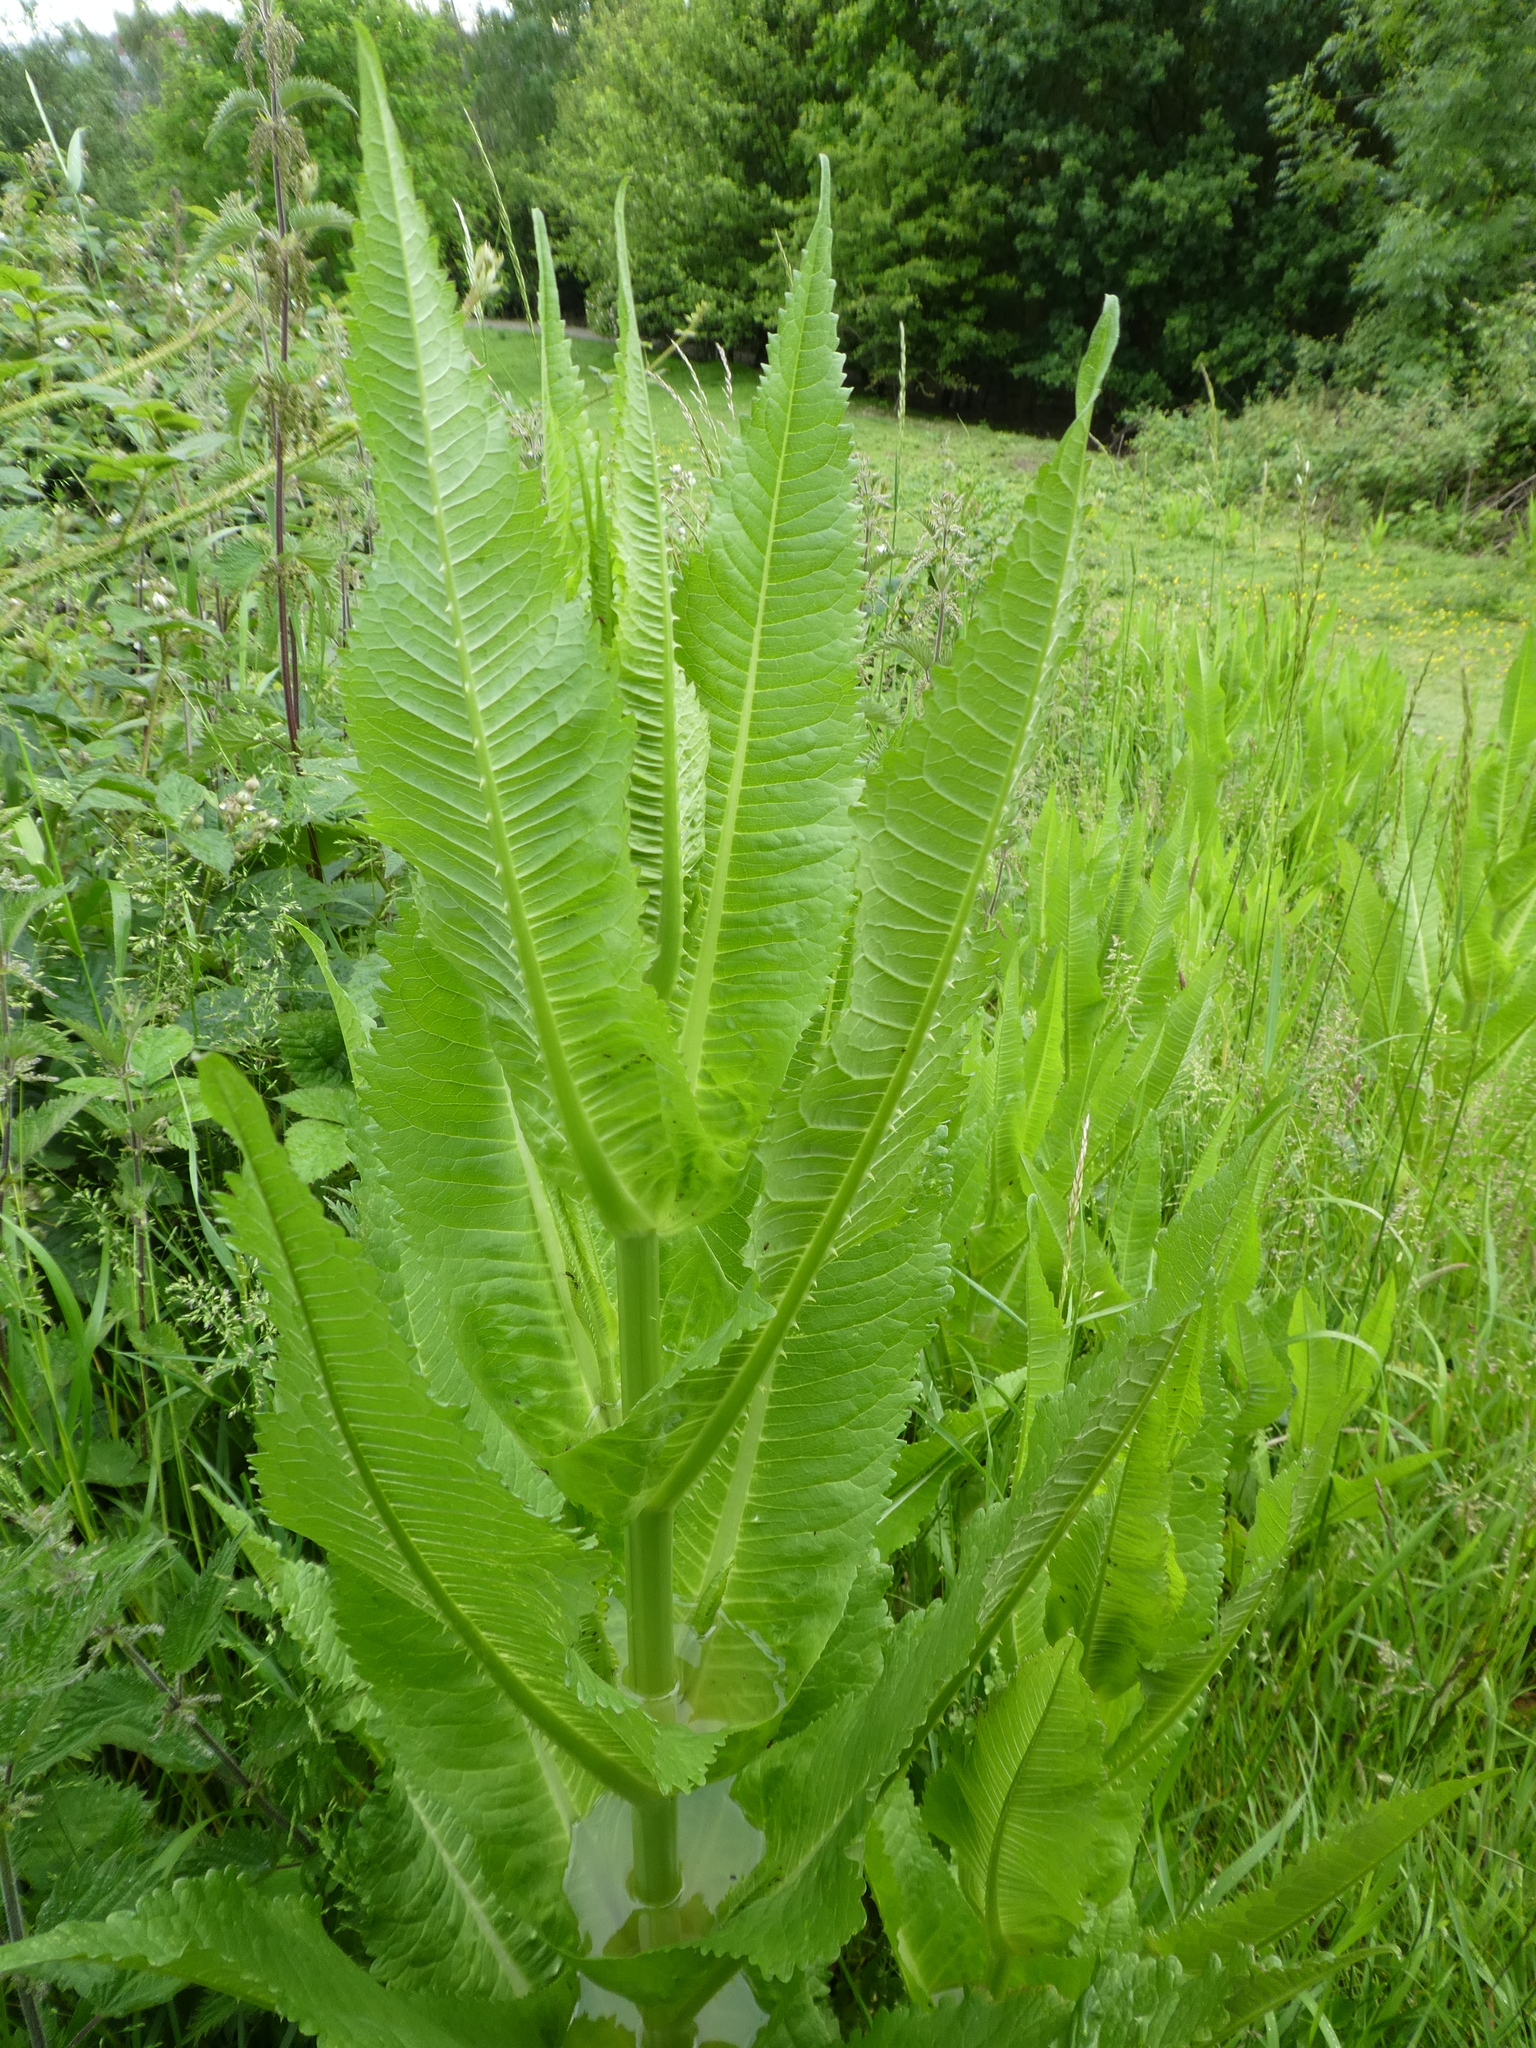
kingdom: Plantae
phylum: Tracheophyta
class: Magnoliopsida
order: Dipsacales
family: Caprifoliaceae
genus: Dipsacus
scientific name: Dipsacus fullonum
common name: Teasel
